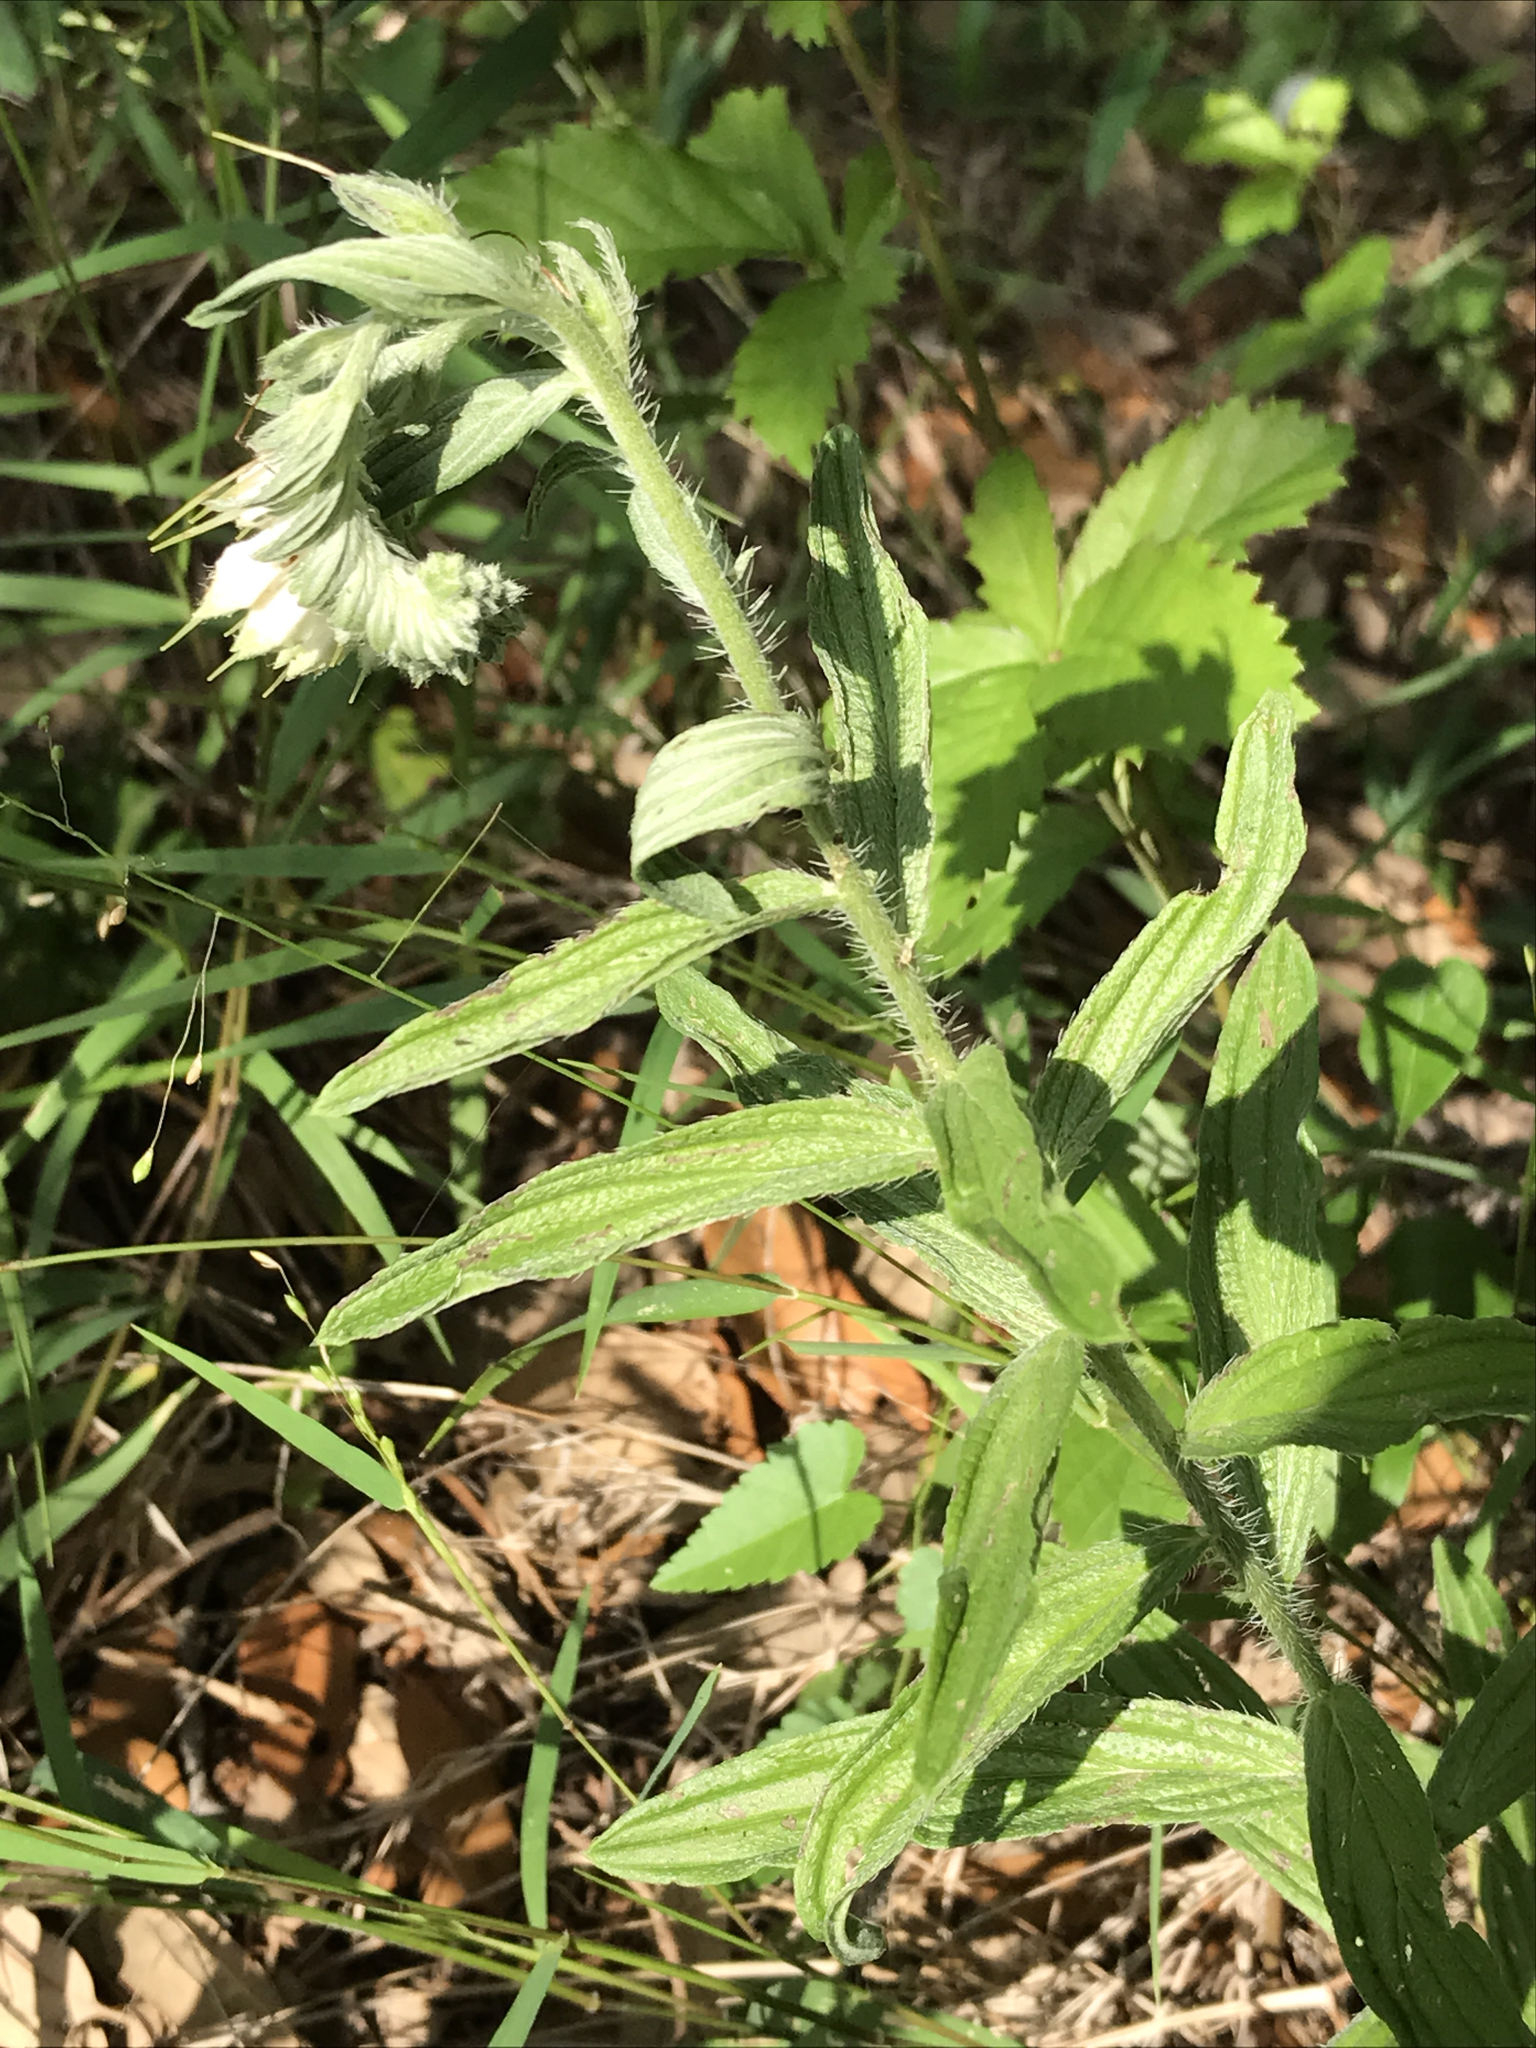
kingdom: Plantae
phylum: Tracheophyta
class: Magnoliopsida
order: Boraginales
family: Boraginaceae
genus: Lithospermum
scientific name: Lithospermum caroliniense
